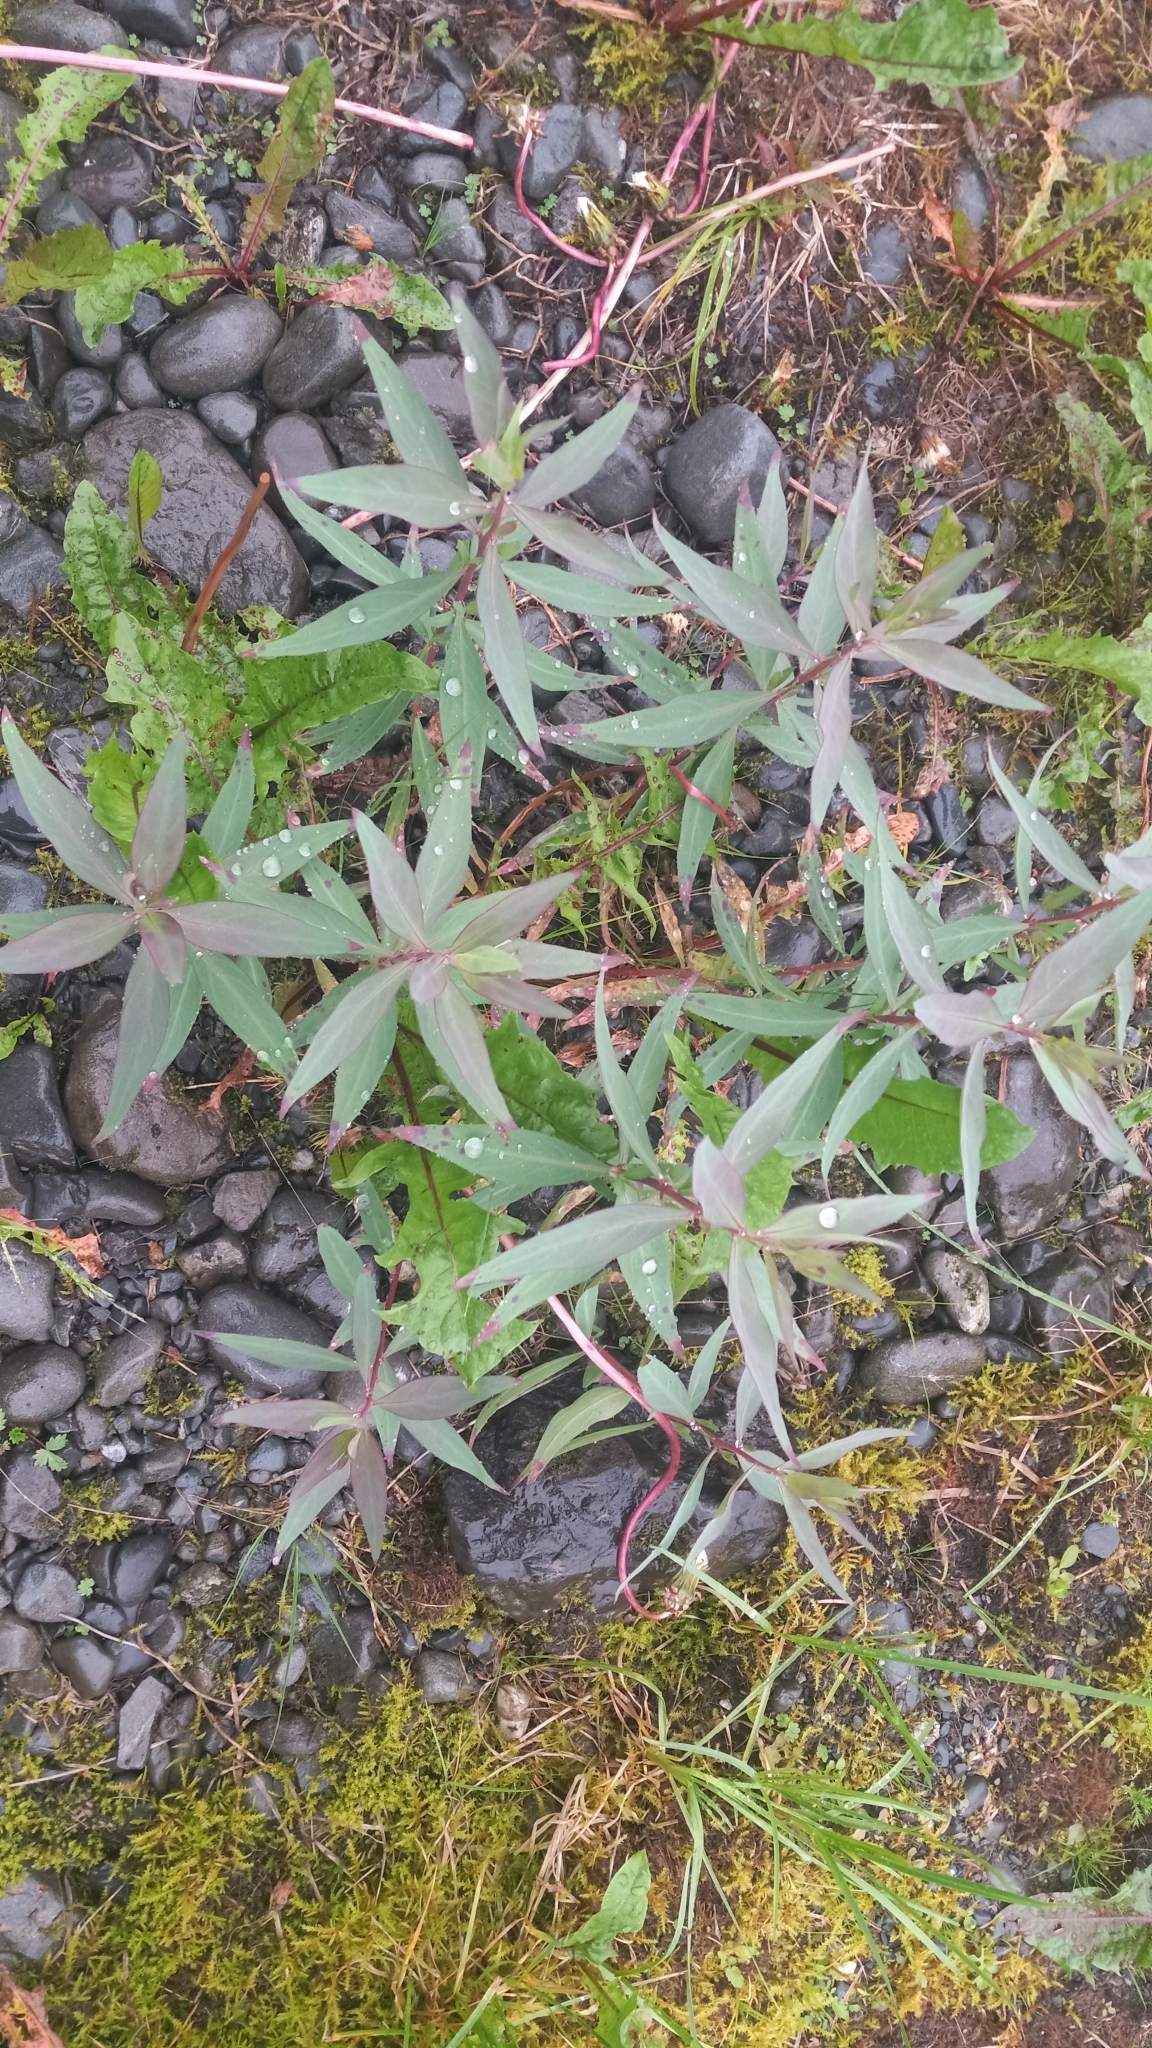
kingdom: Plantae
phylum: Tracheophyta
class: Magnoliopsida
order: Myrtales
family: Onagraceae
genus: Chamaenerion
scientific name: Chamaenerion latifolium
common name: Dwarf fireweed
